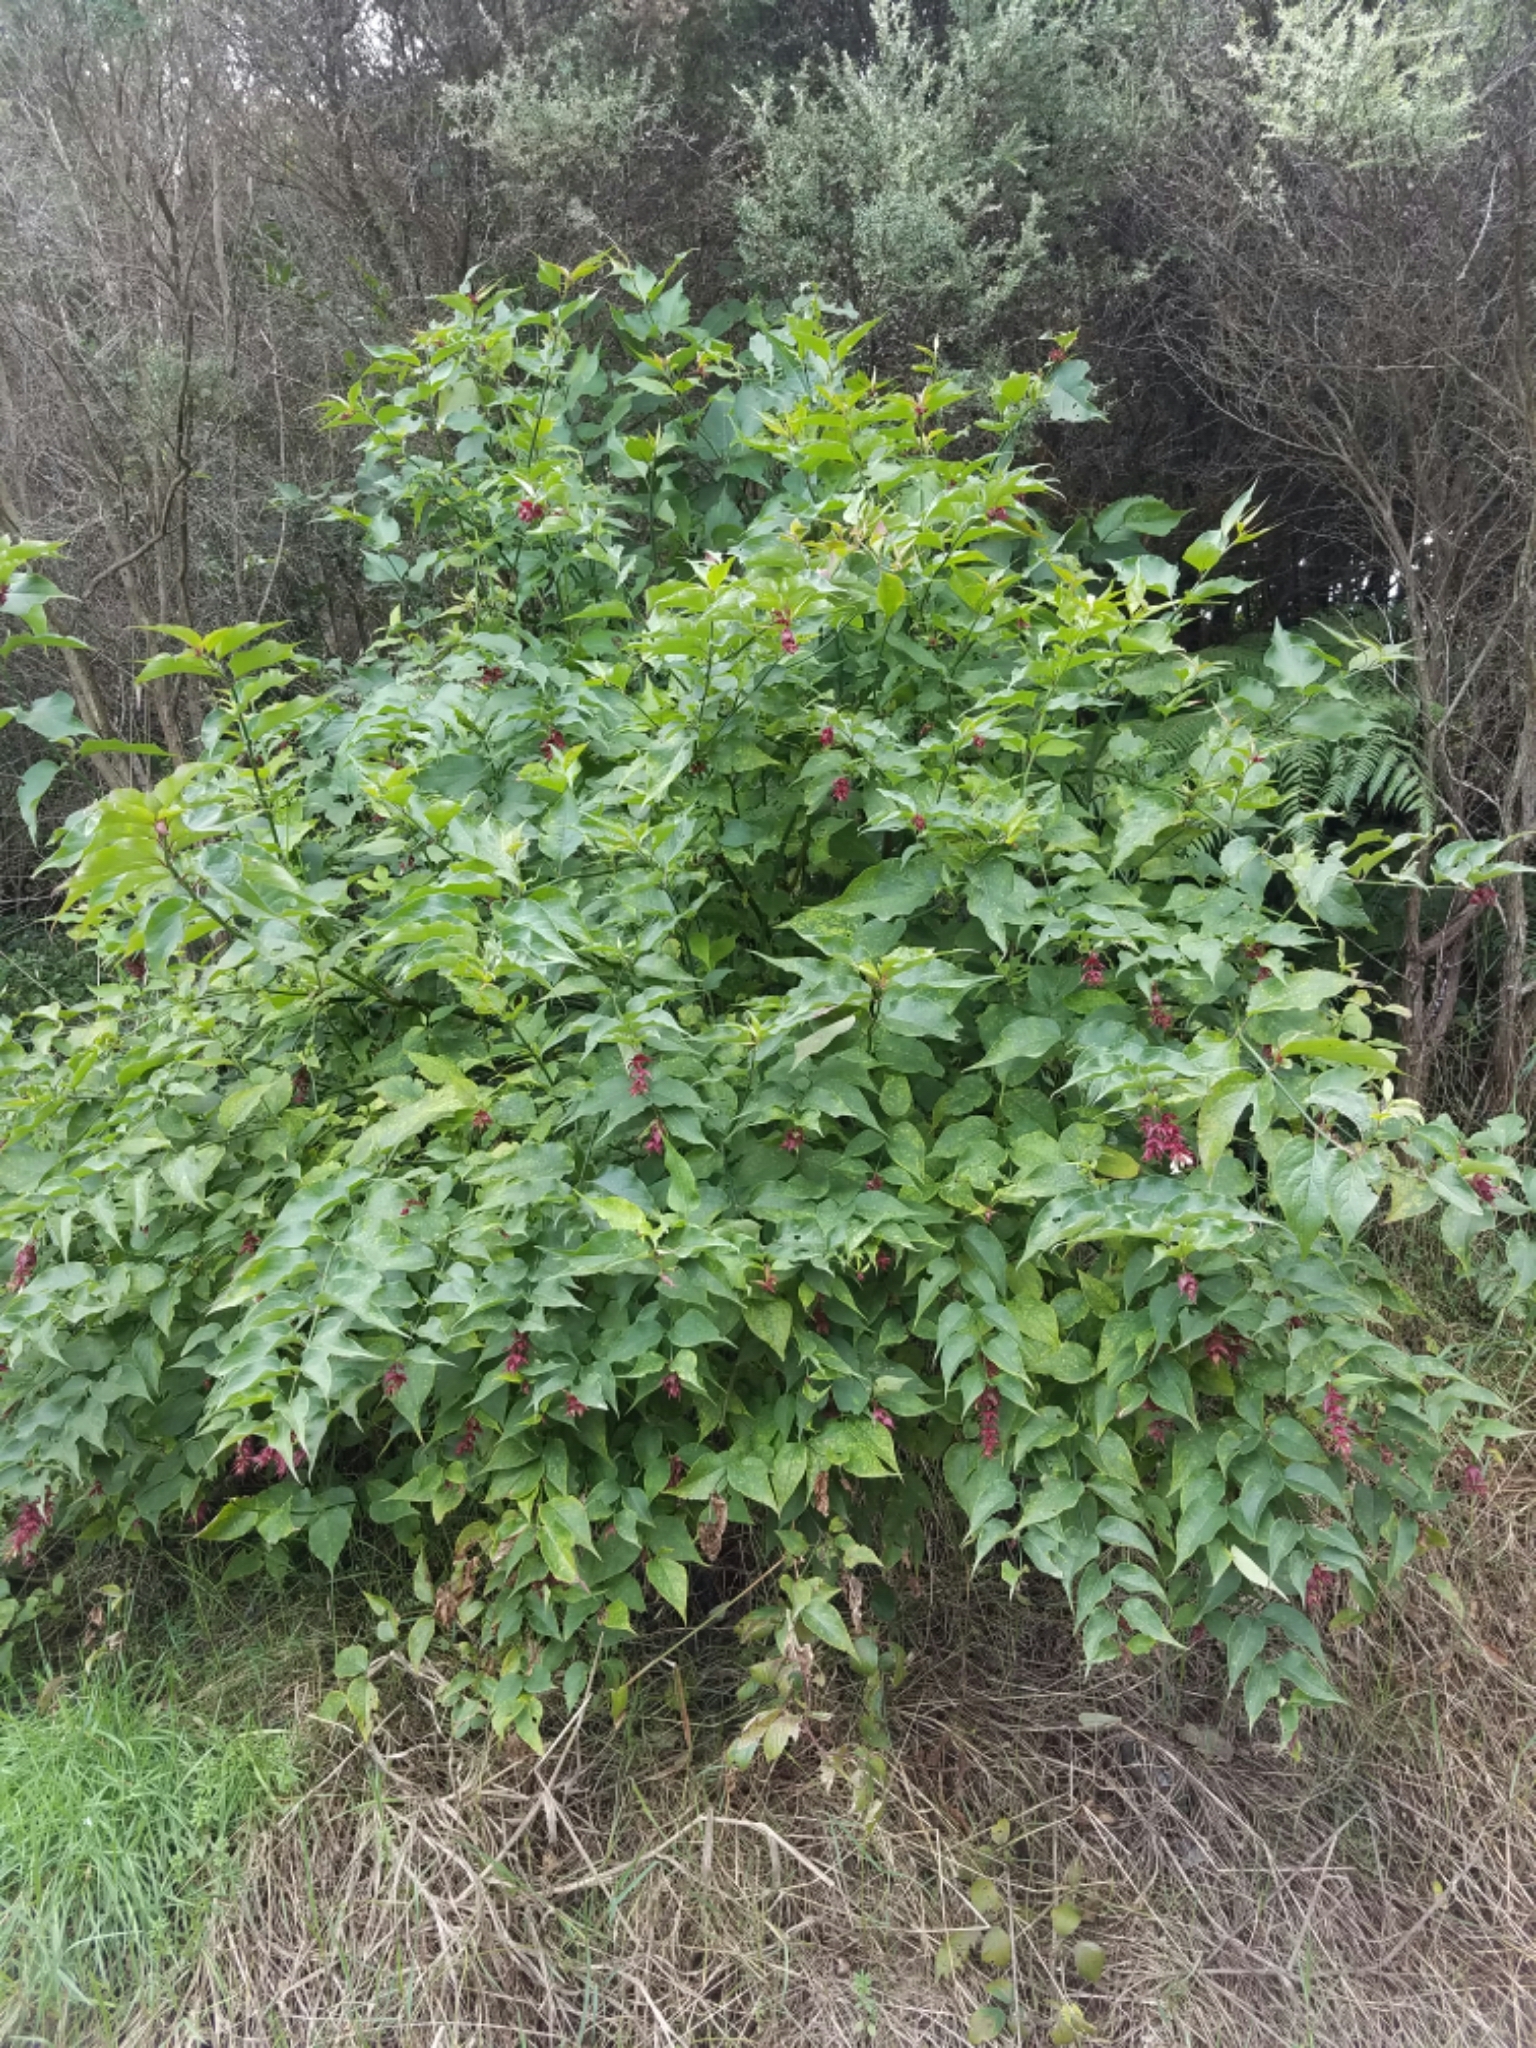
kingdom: Plantae
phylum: Tracheophyta
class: Magnoliopsida
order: Dipsacales
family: Caprifoliaceae
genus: Leycesteria
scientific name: Leycesteria formosa
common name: Himalayan honeysuckle
